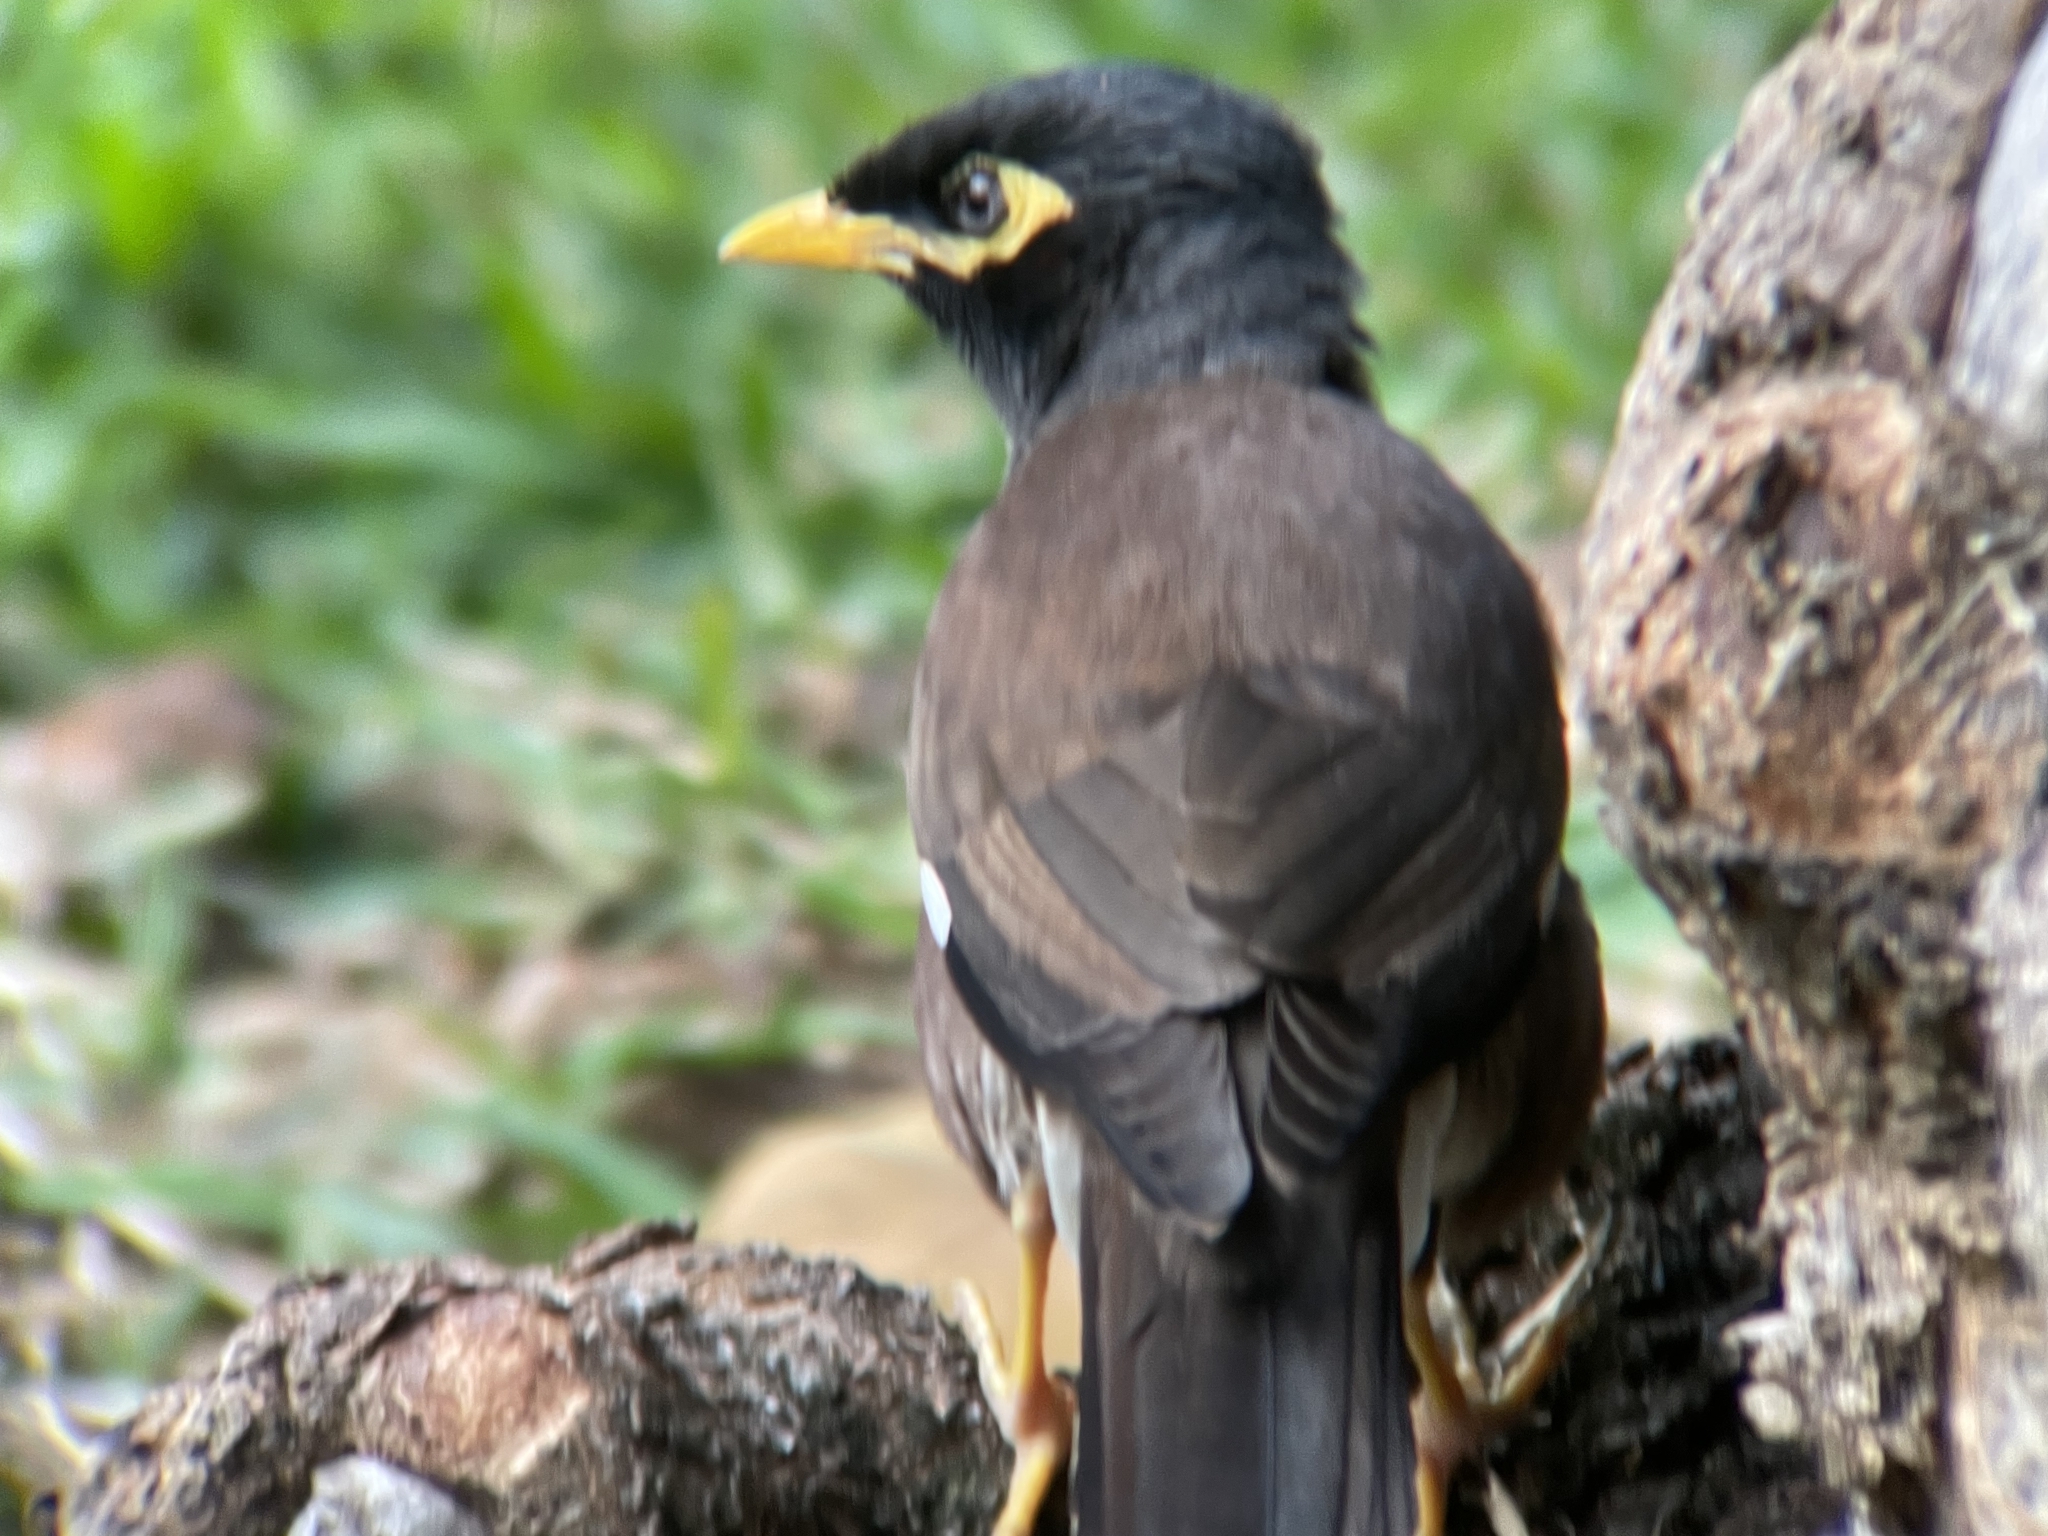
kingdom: Animalia
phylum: Chordata
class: Aves
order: Passeriformes
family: Sturnidae
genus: Acridotheres
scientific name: Acridotheres tristis
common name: Common myna
